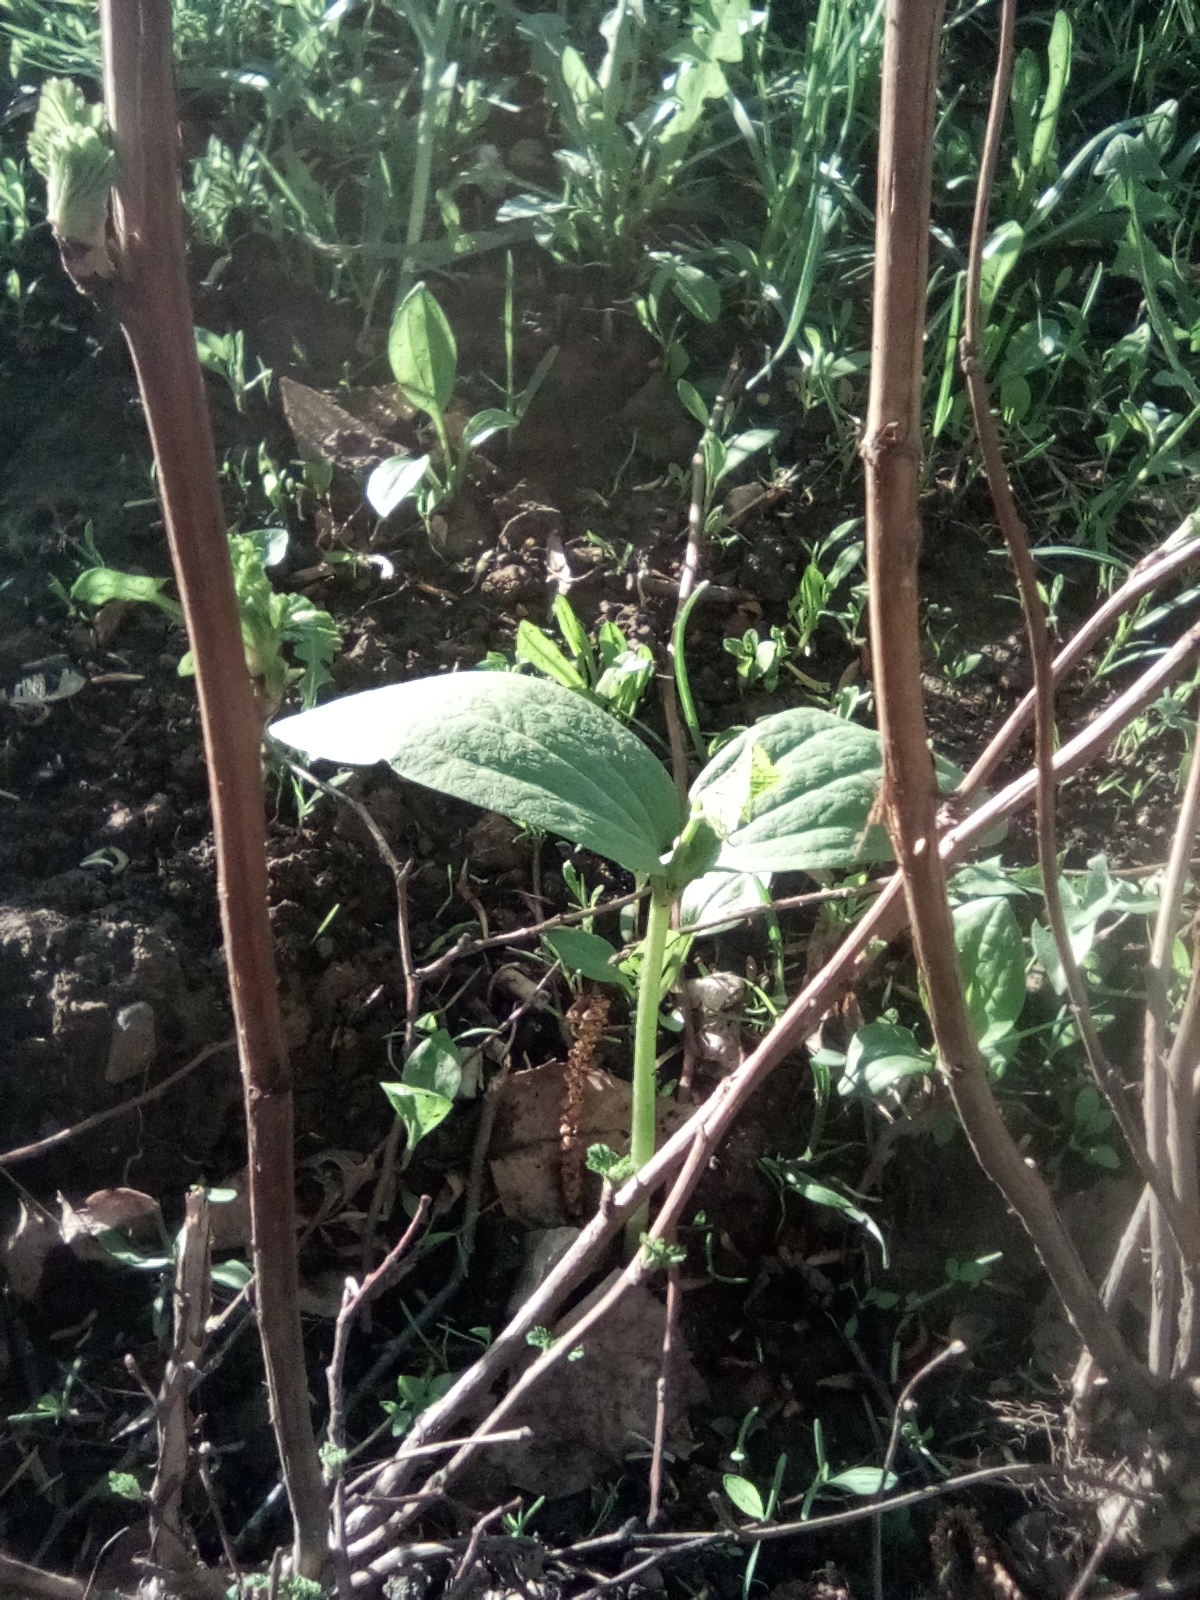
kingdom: Plantae
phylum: Tracheophyta
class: Magnoliopsida
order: Cucurbitales
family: Cucurbitaceae
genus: Echinocystis
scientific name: Echinocystis lobata
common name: Wild cucumber
